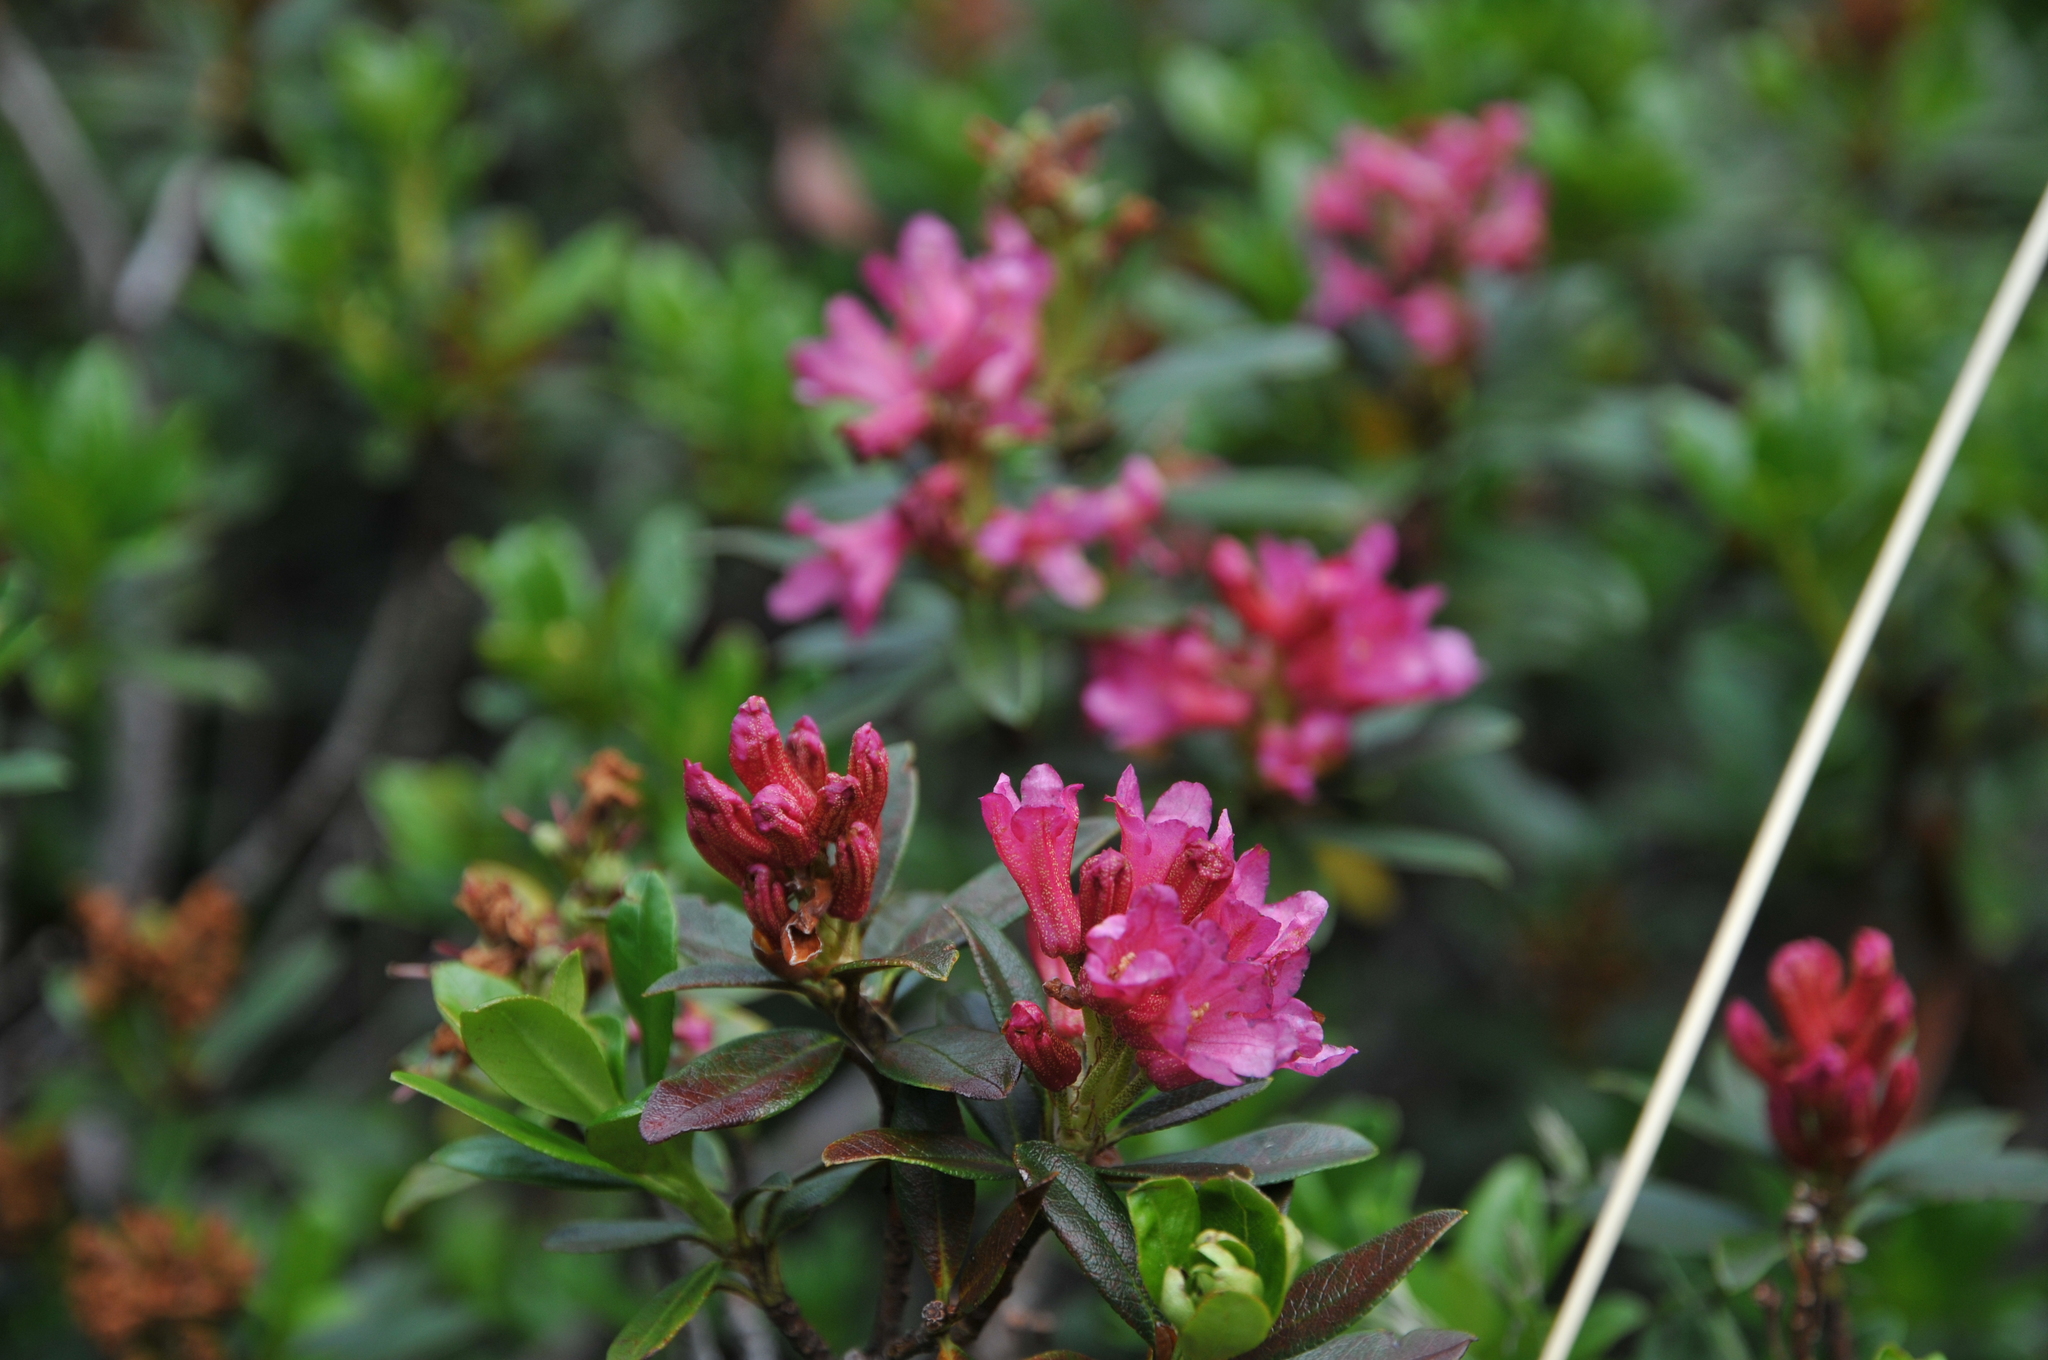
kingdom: Plantae
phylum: Tracheophyta
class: Magnoliopsida
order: Ericales
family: Ericaceae
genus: Rhododendron
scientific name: Rhododendron ferrugineum
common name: Alpenrose
